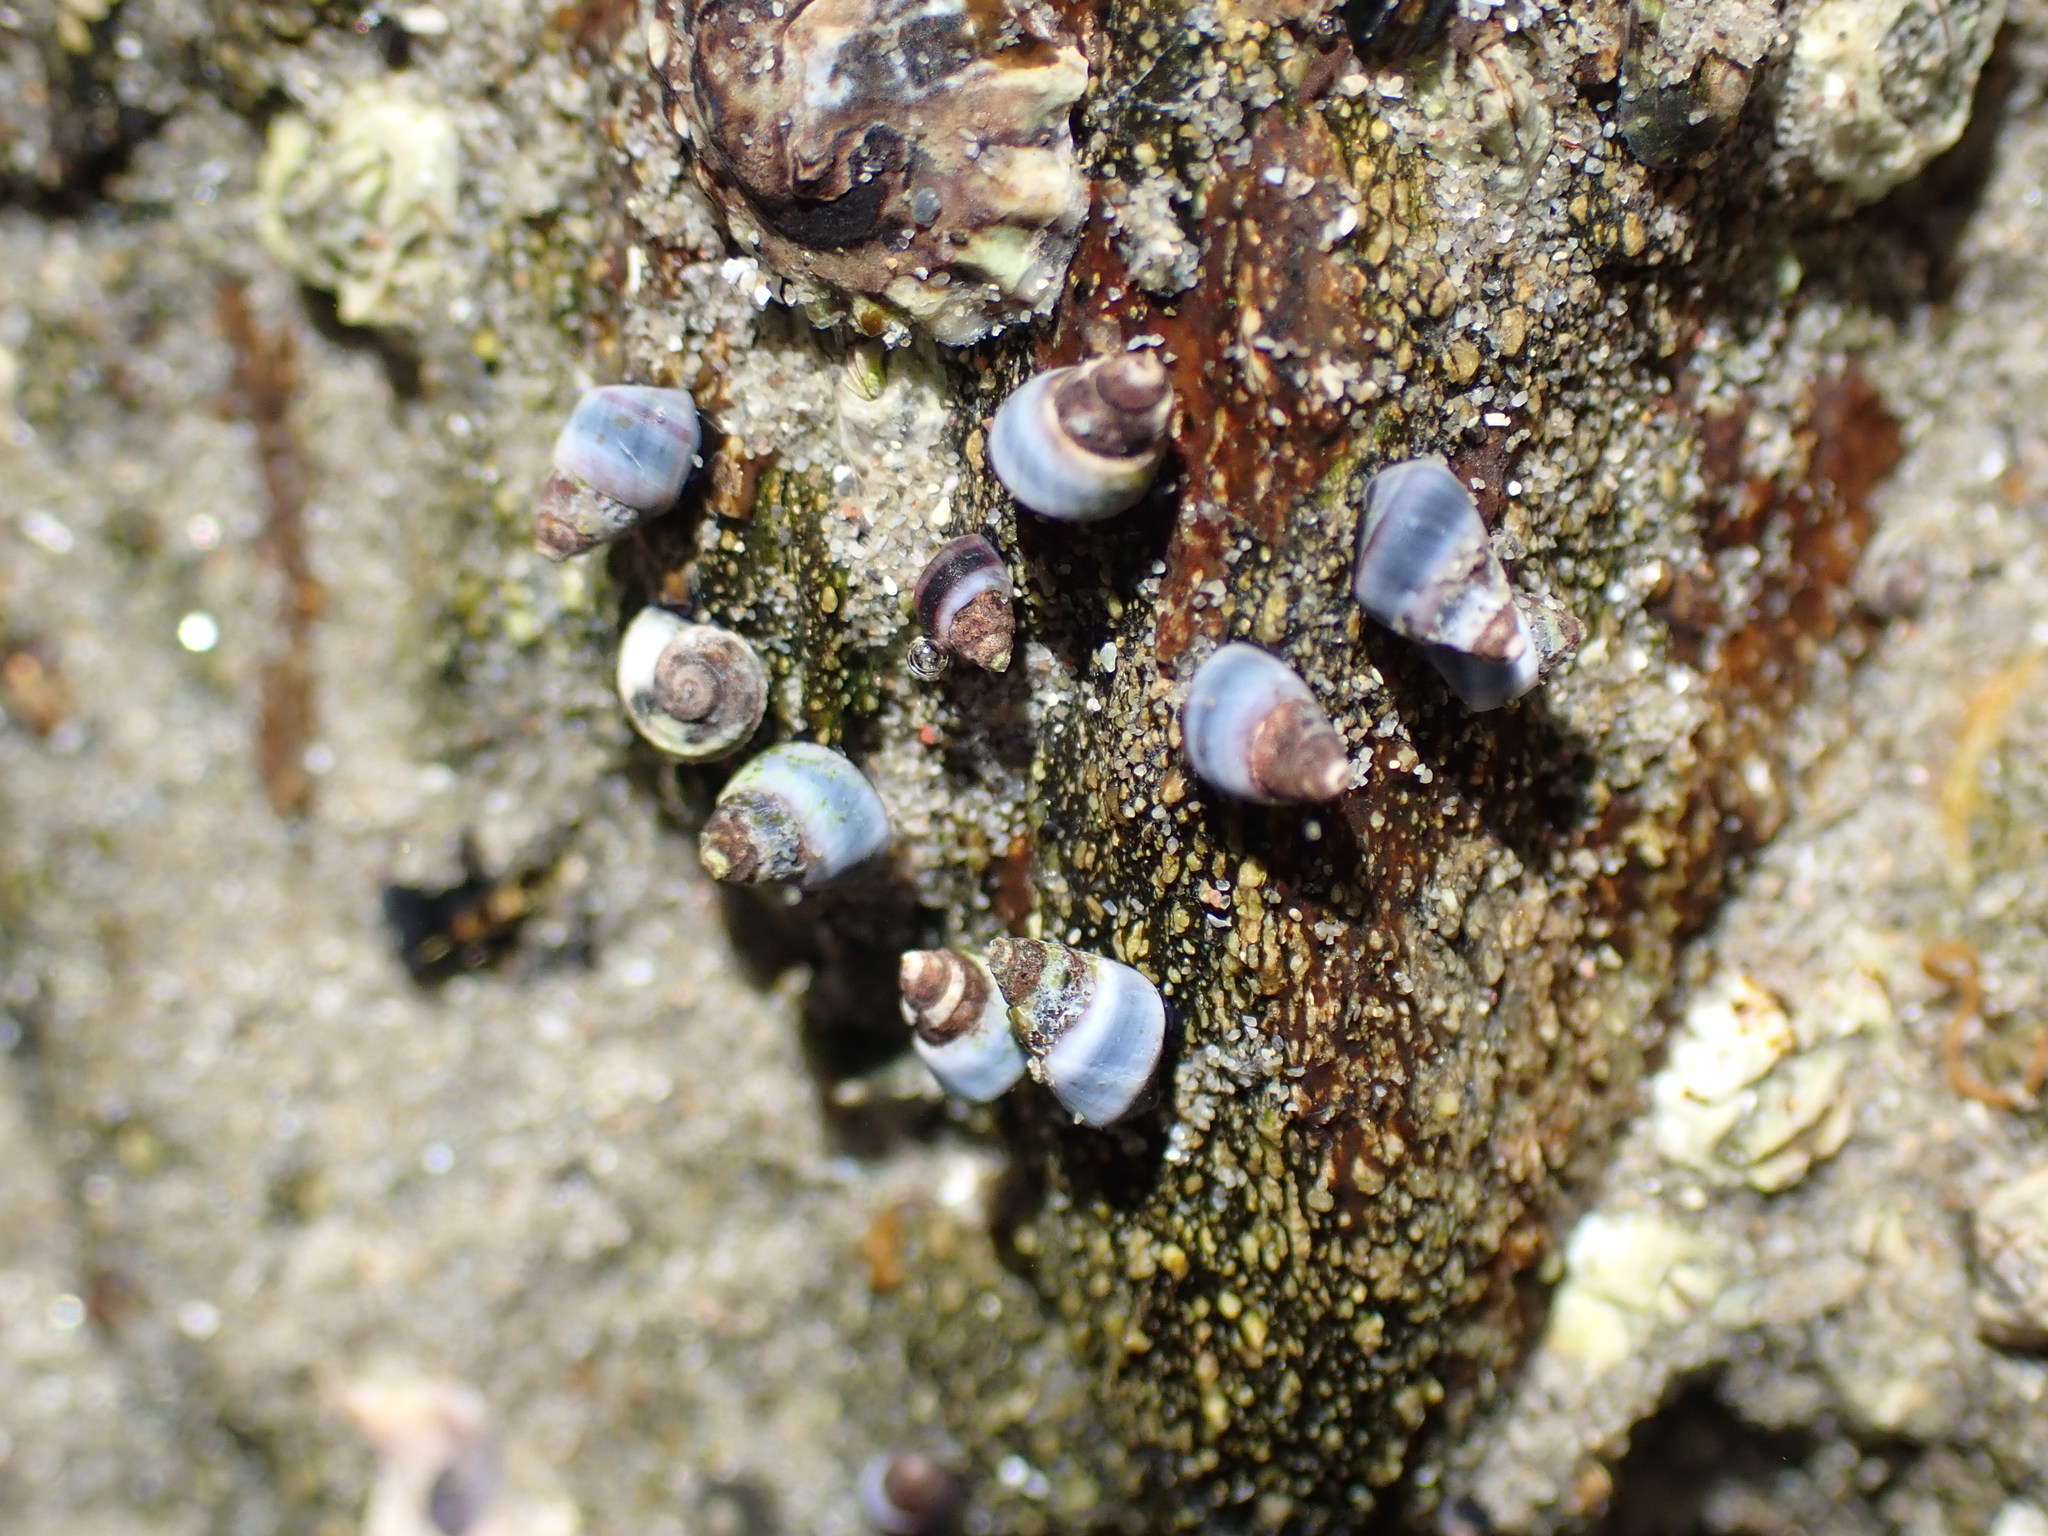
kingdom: Animalia
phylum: Mollusca
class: Gastropoda
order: Littorinimorpha
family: Littorinidae
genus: Austrolittorina
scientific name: Austrolittorina antipodum
